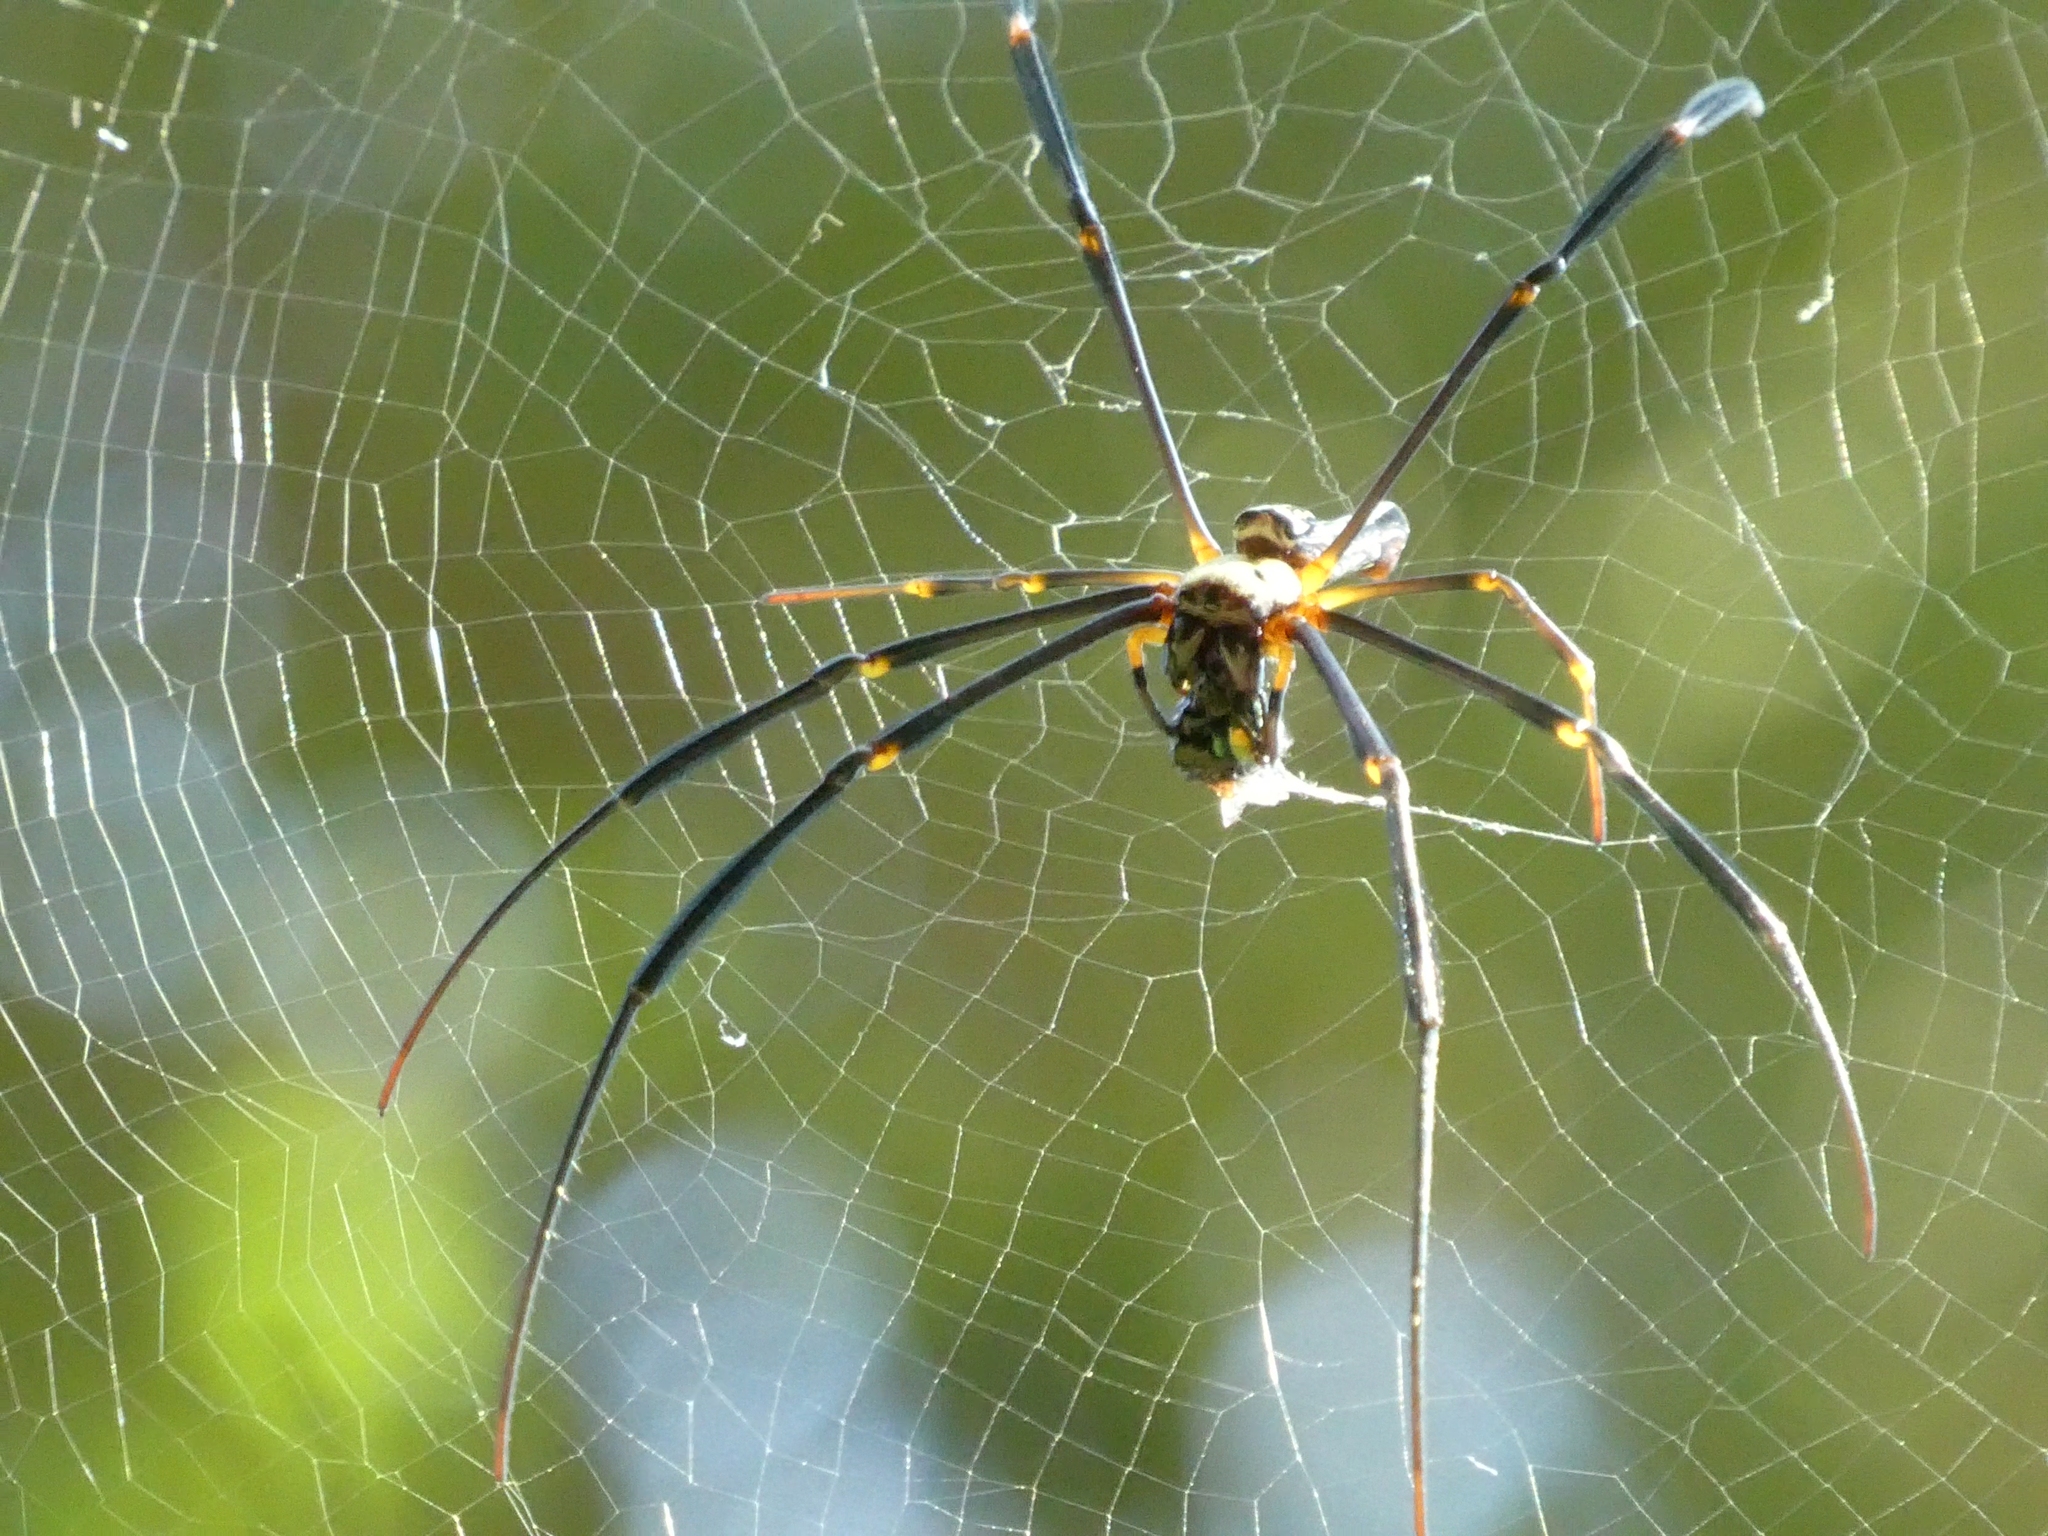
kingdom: Animalia
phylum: Arthropoda
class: Arachnida
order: Araneae
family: Araneidae
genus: Nephila
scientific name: Nephila pilipes
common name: Giant golden orb weaver
